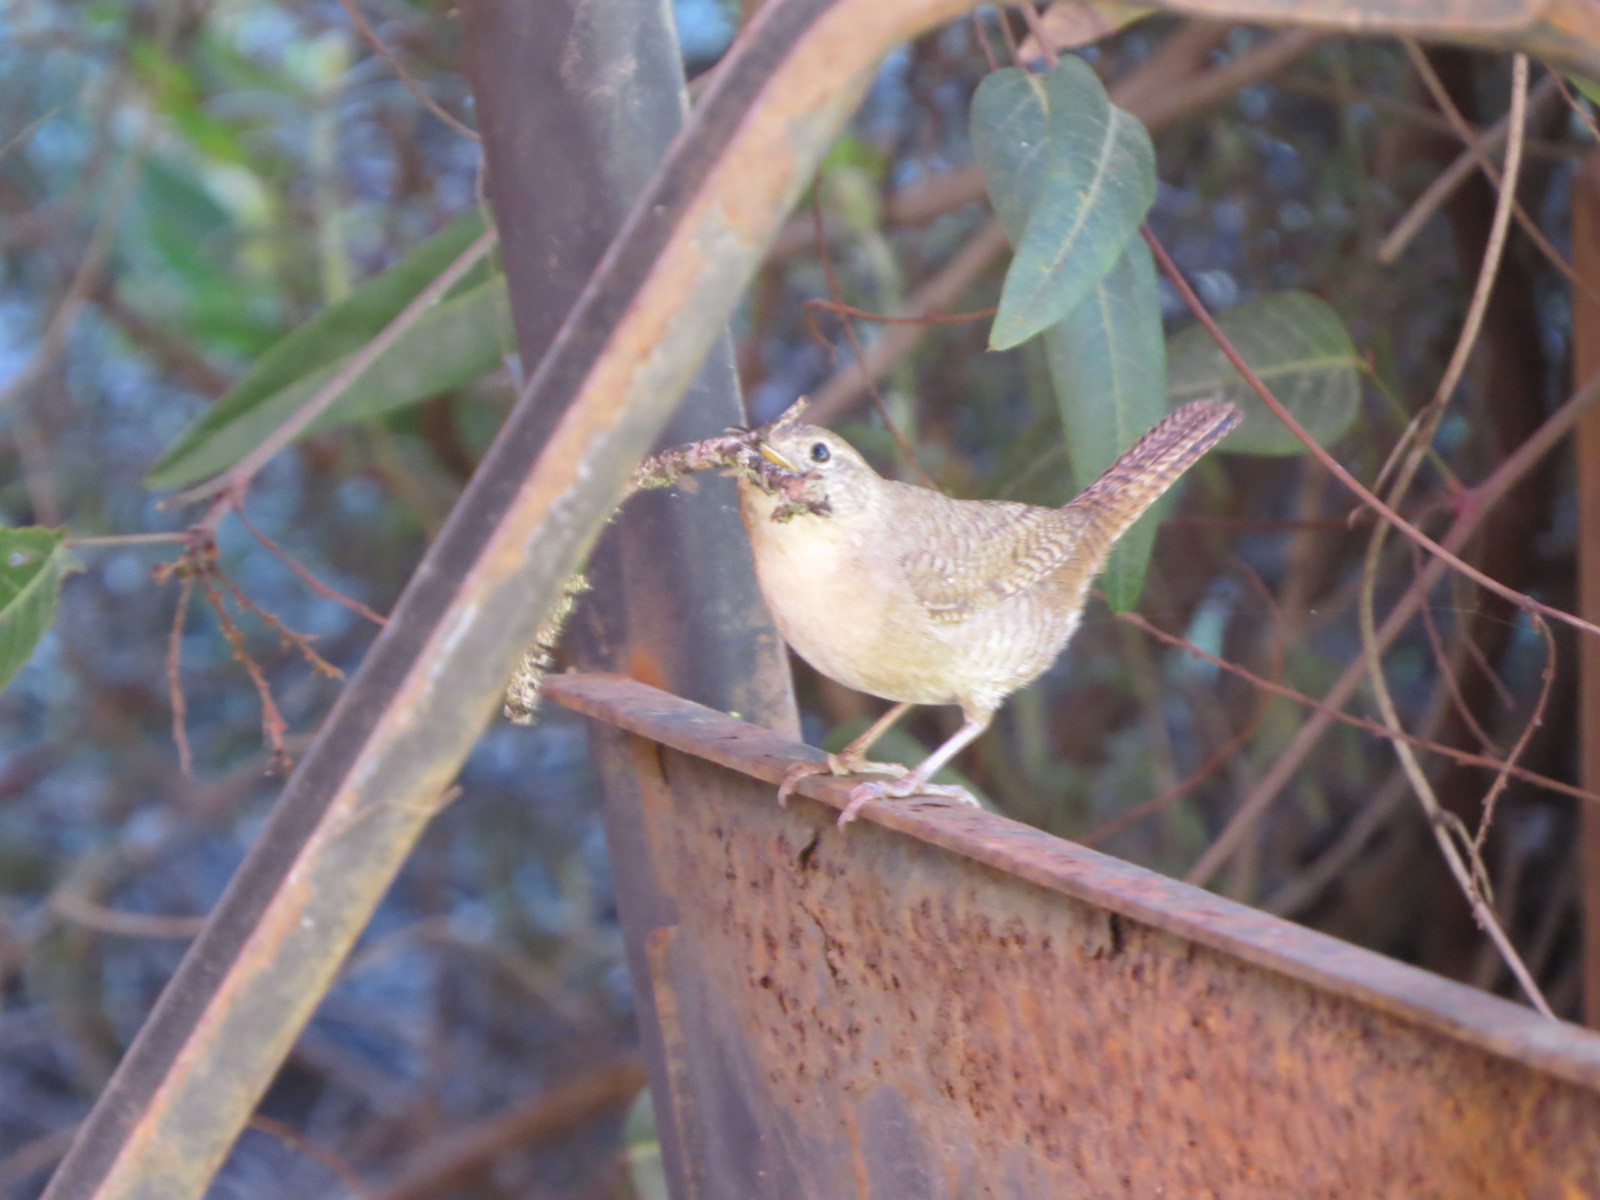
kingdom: Animalia
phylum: Chordata
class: Aves
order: Passeriformes
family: Troglodytidae
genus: Troglodytes
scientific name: Troglodytes aedon
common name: House wren
